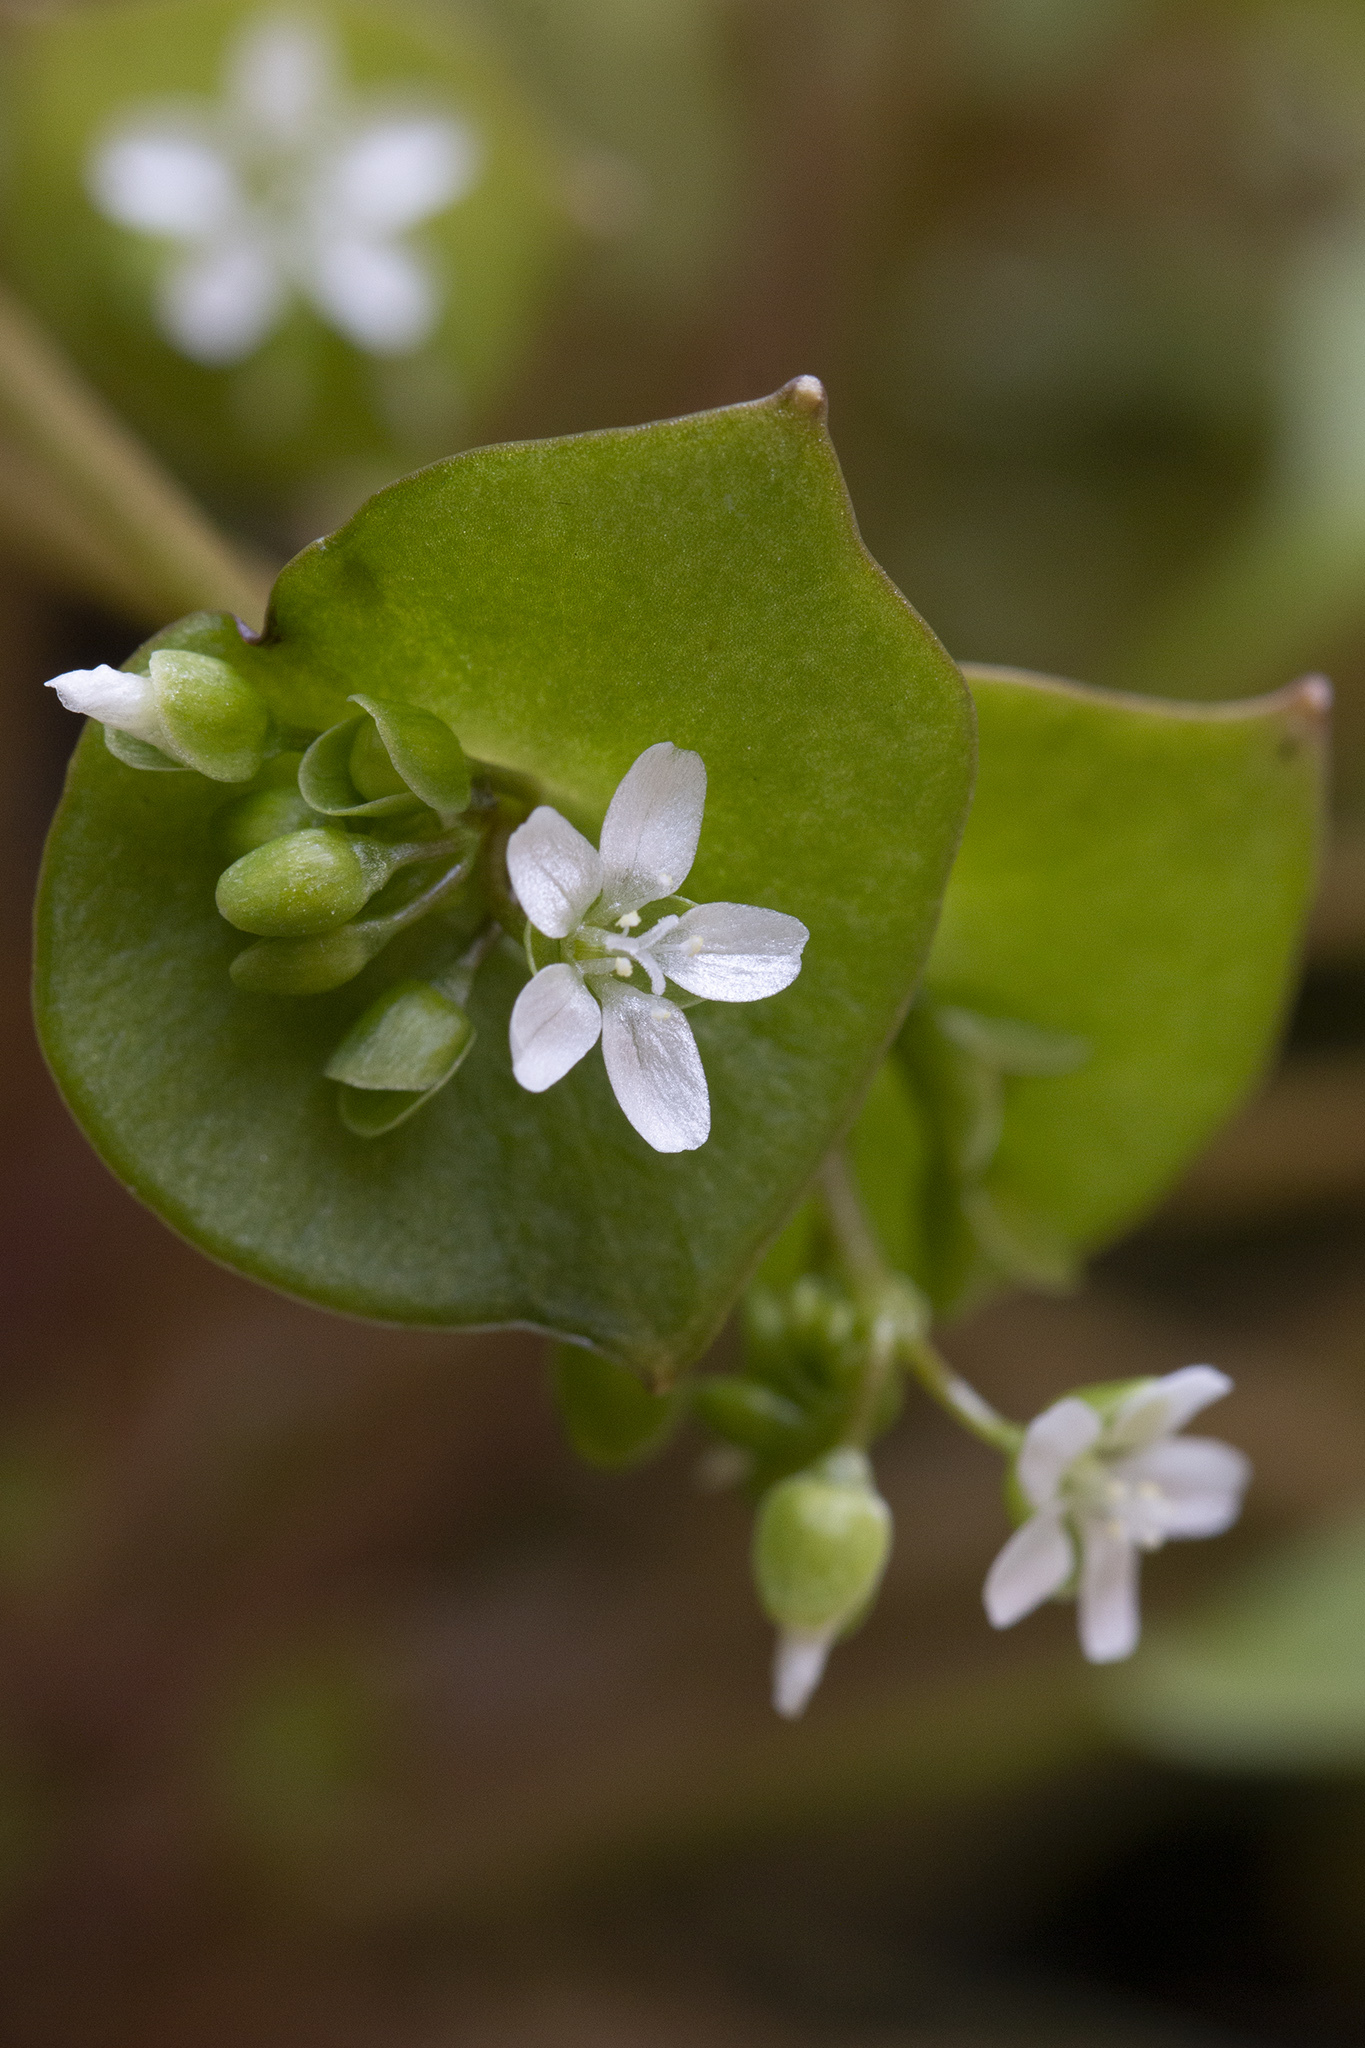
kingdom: Plantae
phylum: Tracheophyta
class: Magnoliopsida
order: Caryophyllales
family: Montiaceae
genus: Claytonia
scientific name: Claytonia perfoliata
